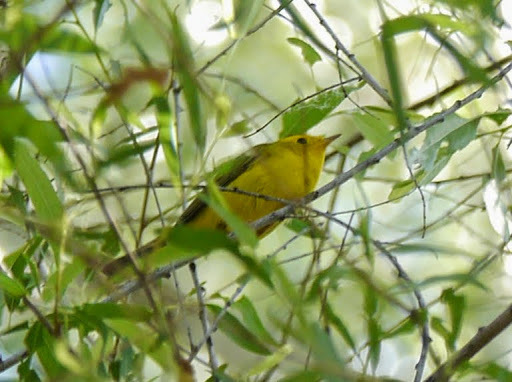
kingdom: Animalia
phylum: Chordata
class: Aves
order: Passeriformes
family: Parulidae
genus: Cardellina
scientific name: Cardellina pusilla
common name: Wilson's warbler
